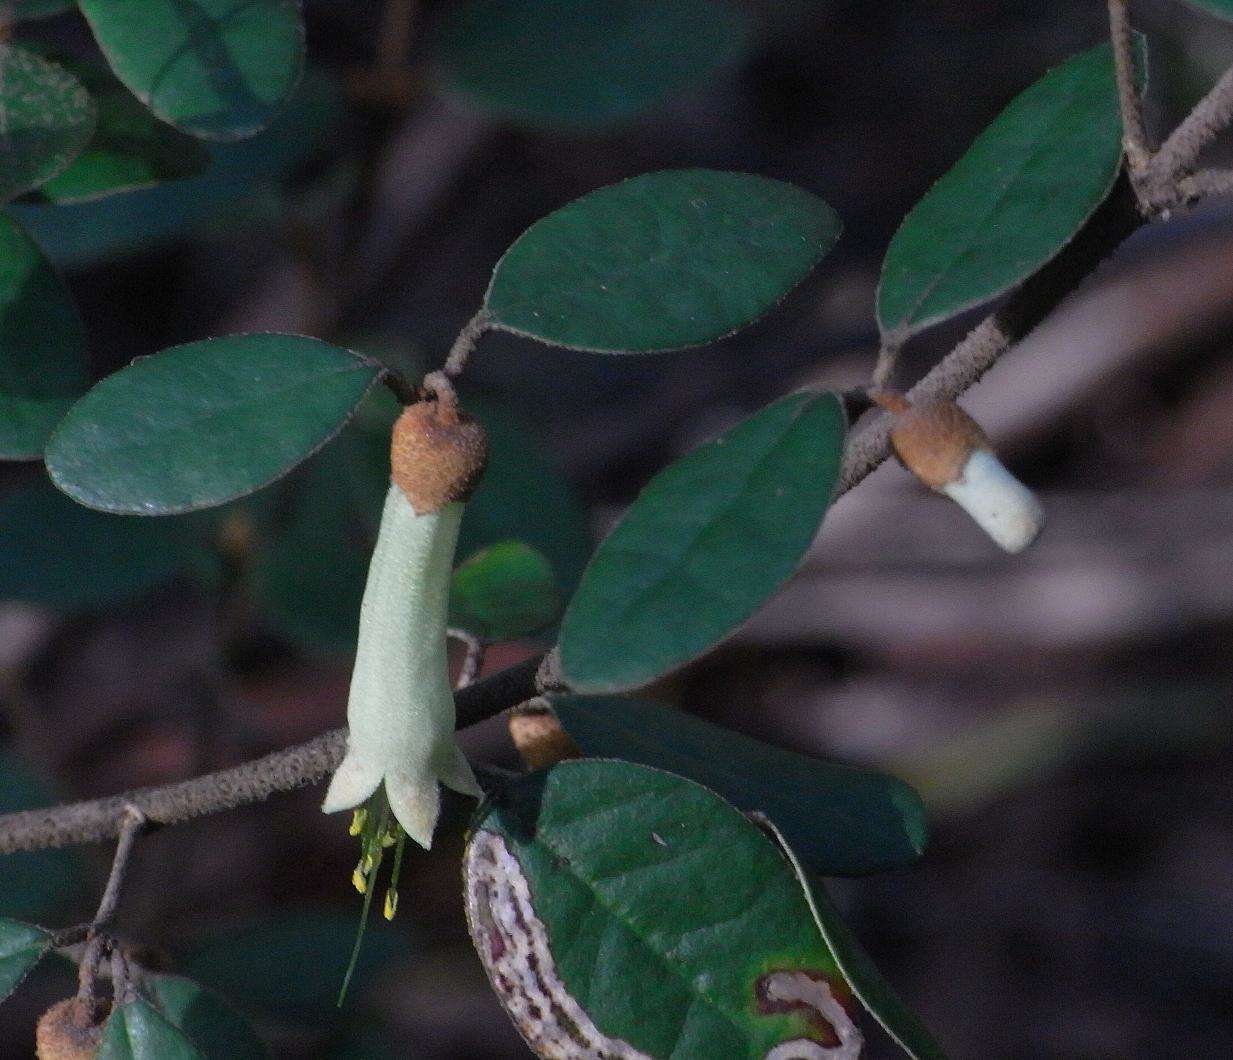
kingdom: Plantae
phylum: Tracheophyta
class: Magnoliopsida
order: Sapindales
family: Rutaceae
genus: Correa
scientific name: Correa lawrenciana
